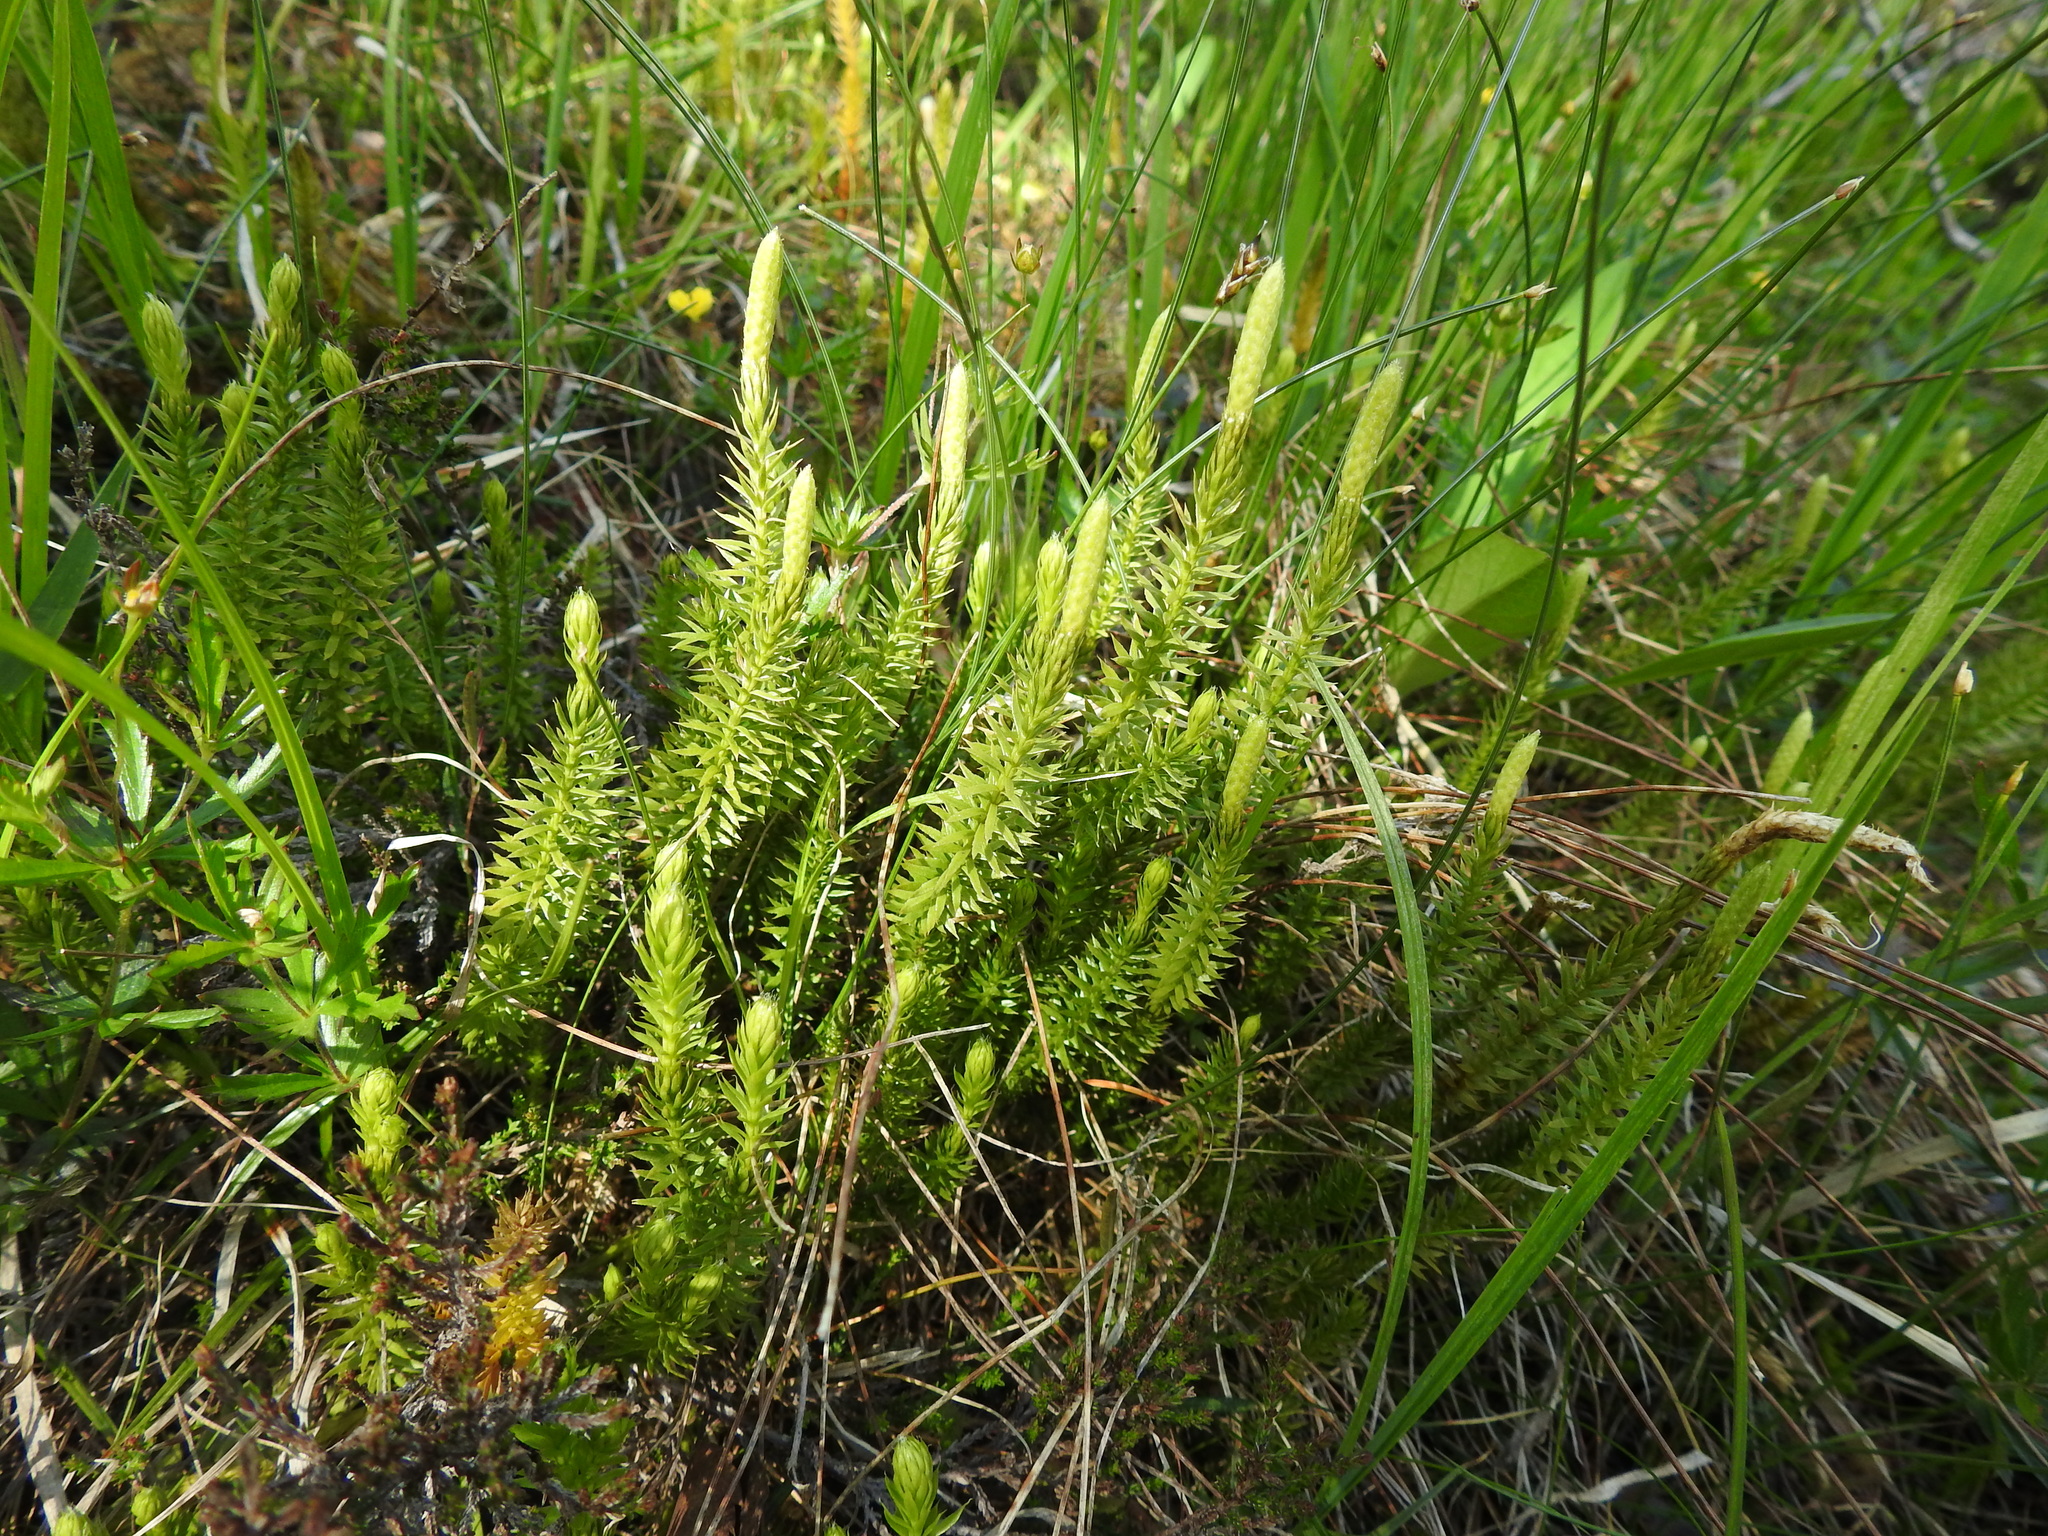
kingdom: Plantae
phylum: Tracheophyta
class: Lycopodiopsida
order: Lycopodiales
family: Lycopodiaceae
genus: Spinulum
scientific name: Spinulum annotinum
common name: Interrupted club-moss
